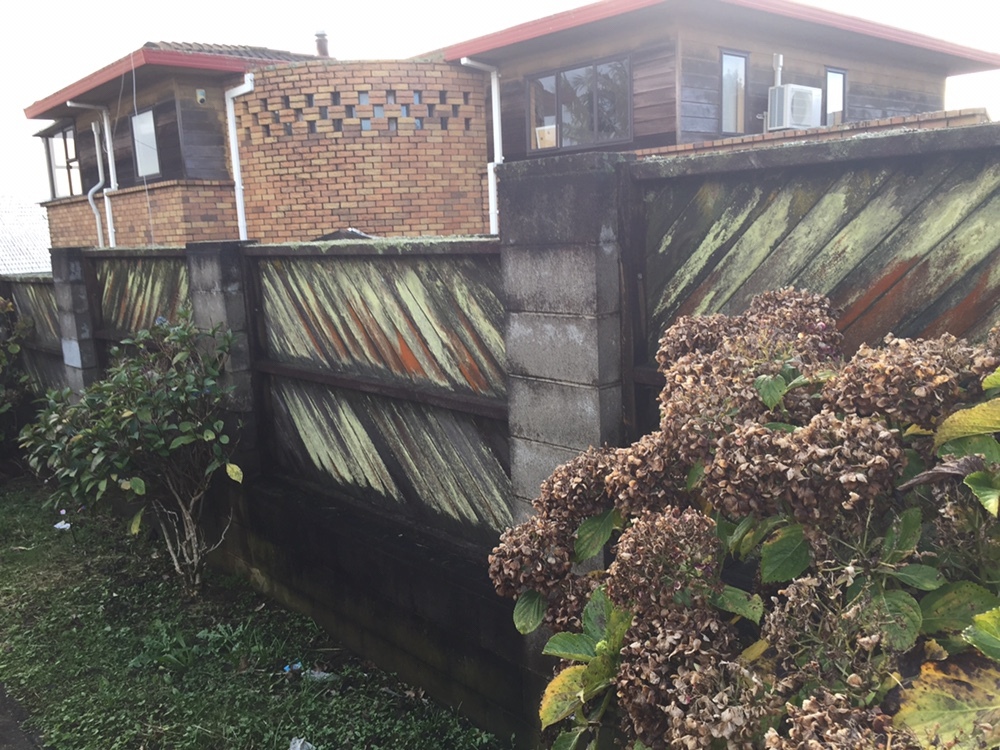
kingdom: Fungi
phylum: Ascomycota
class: Lecanoromycetes
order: Lecanorales
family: Lecanoraceae
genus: Lecanora
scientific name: Lecanora expallens
